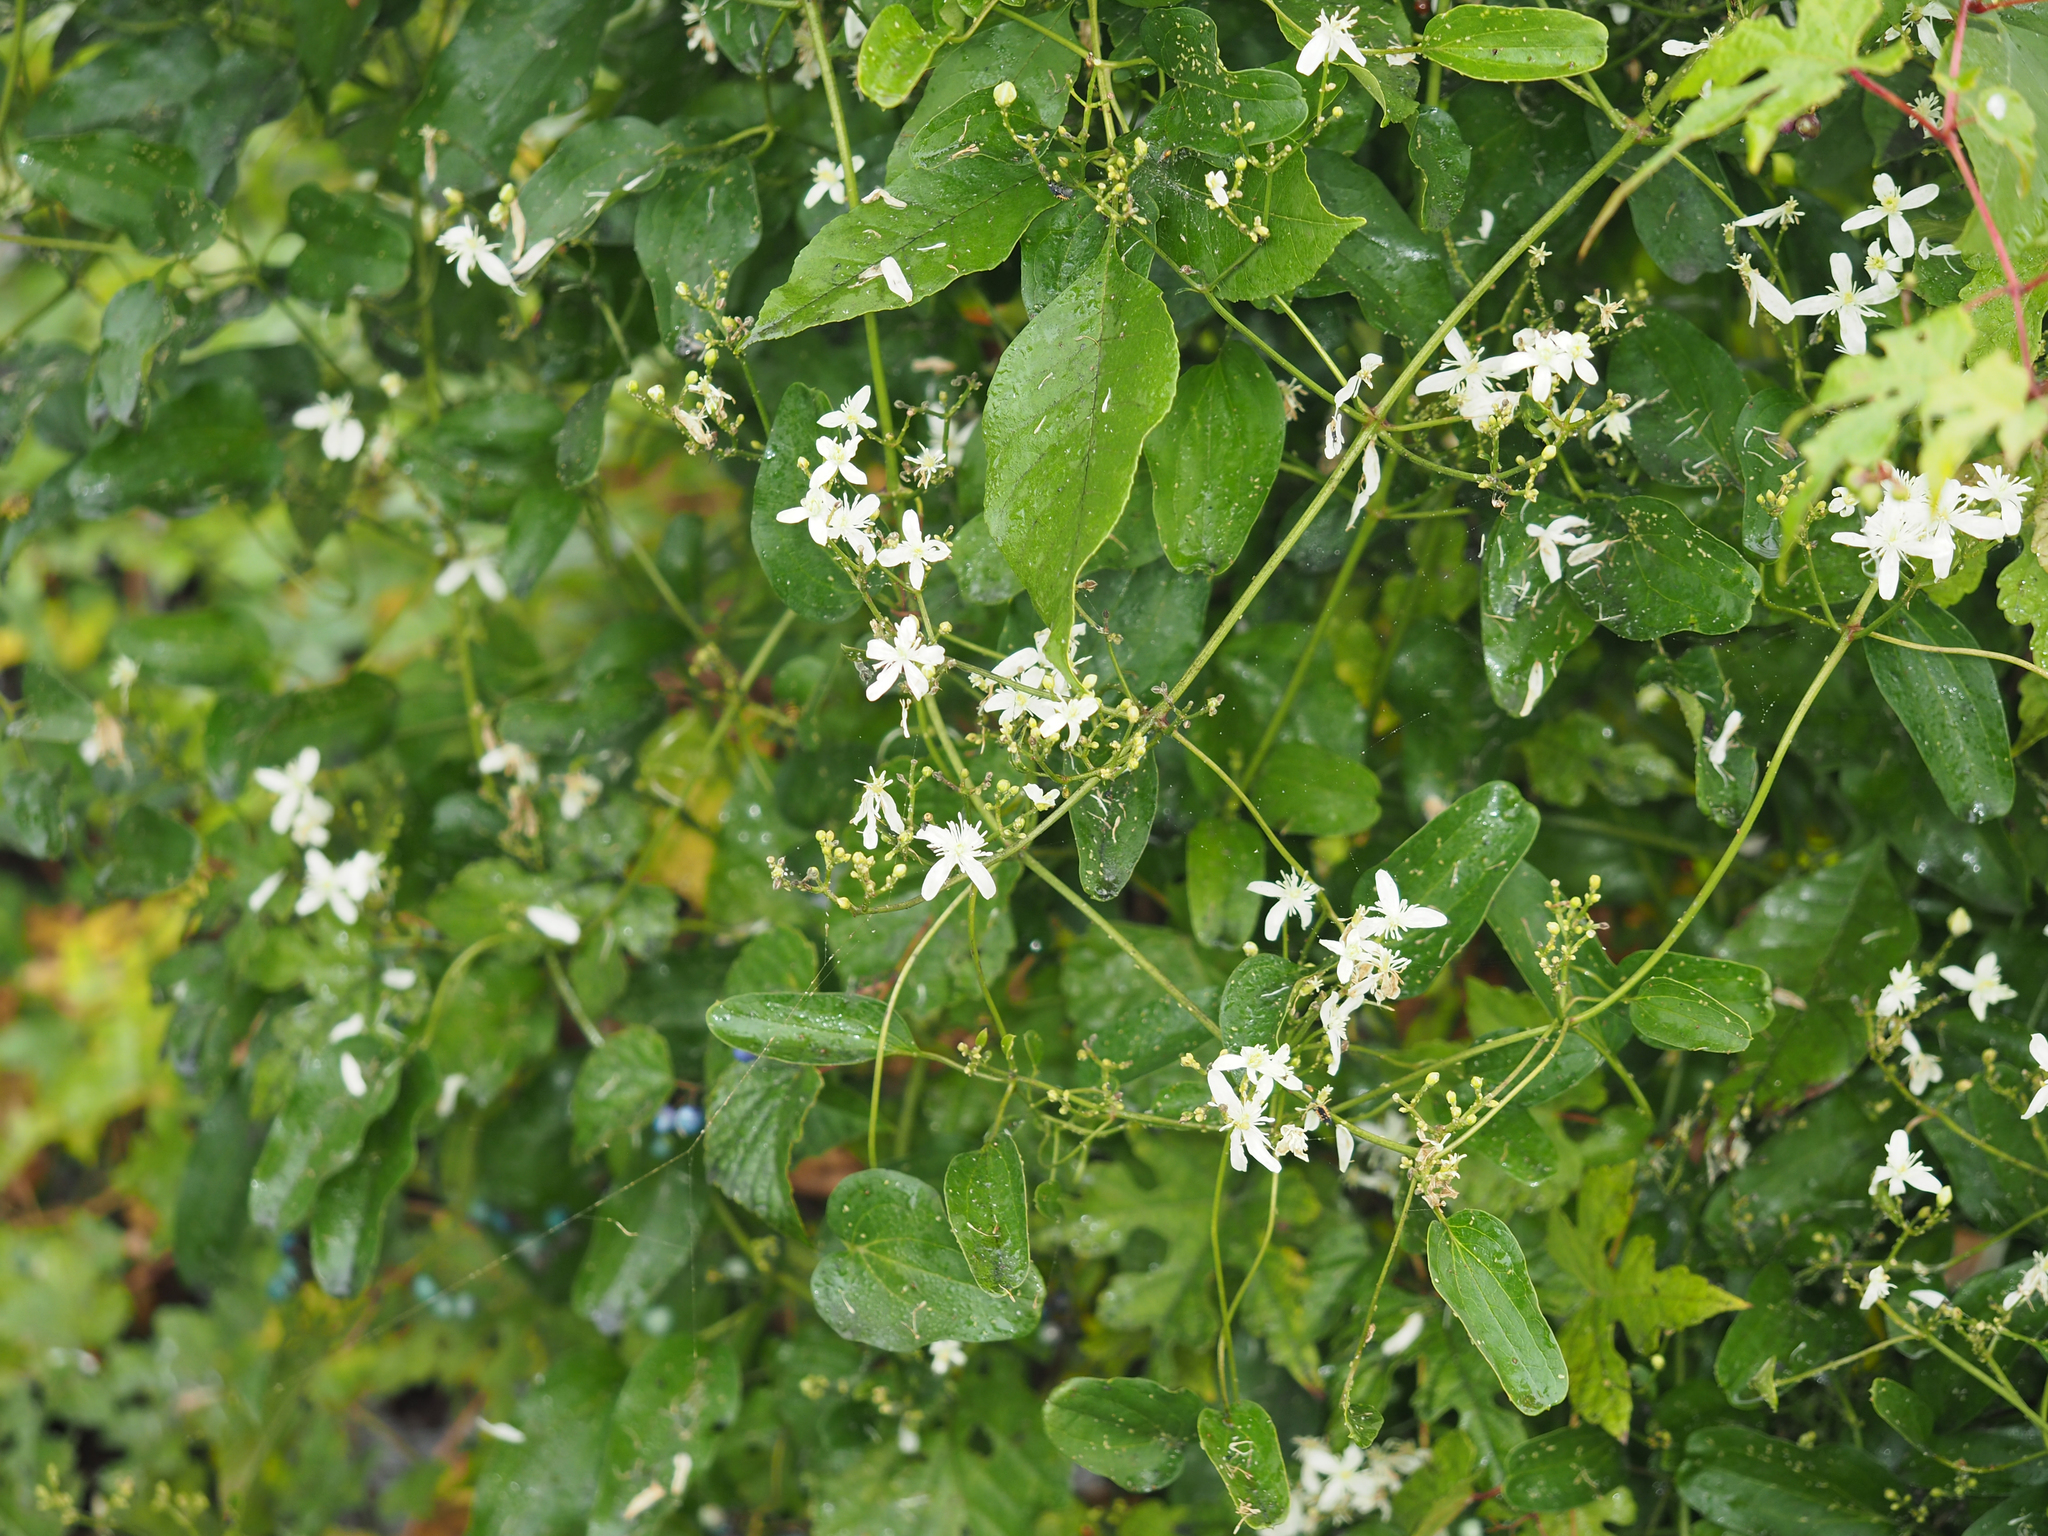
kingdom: Plantae
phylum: Tracheophyta
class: Magnoliopsida
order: Ranunculales
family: Ranunculaceae
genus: Clematis
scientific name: Clematis terniflora
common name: Sweet autumn clematis
